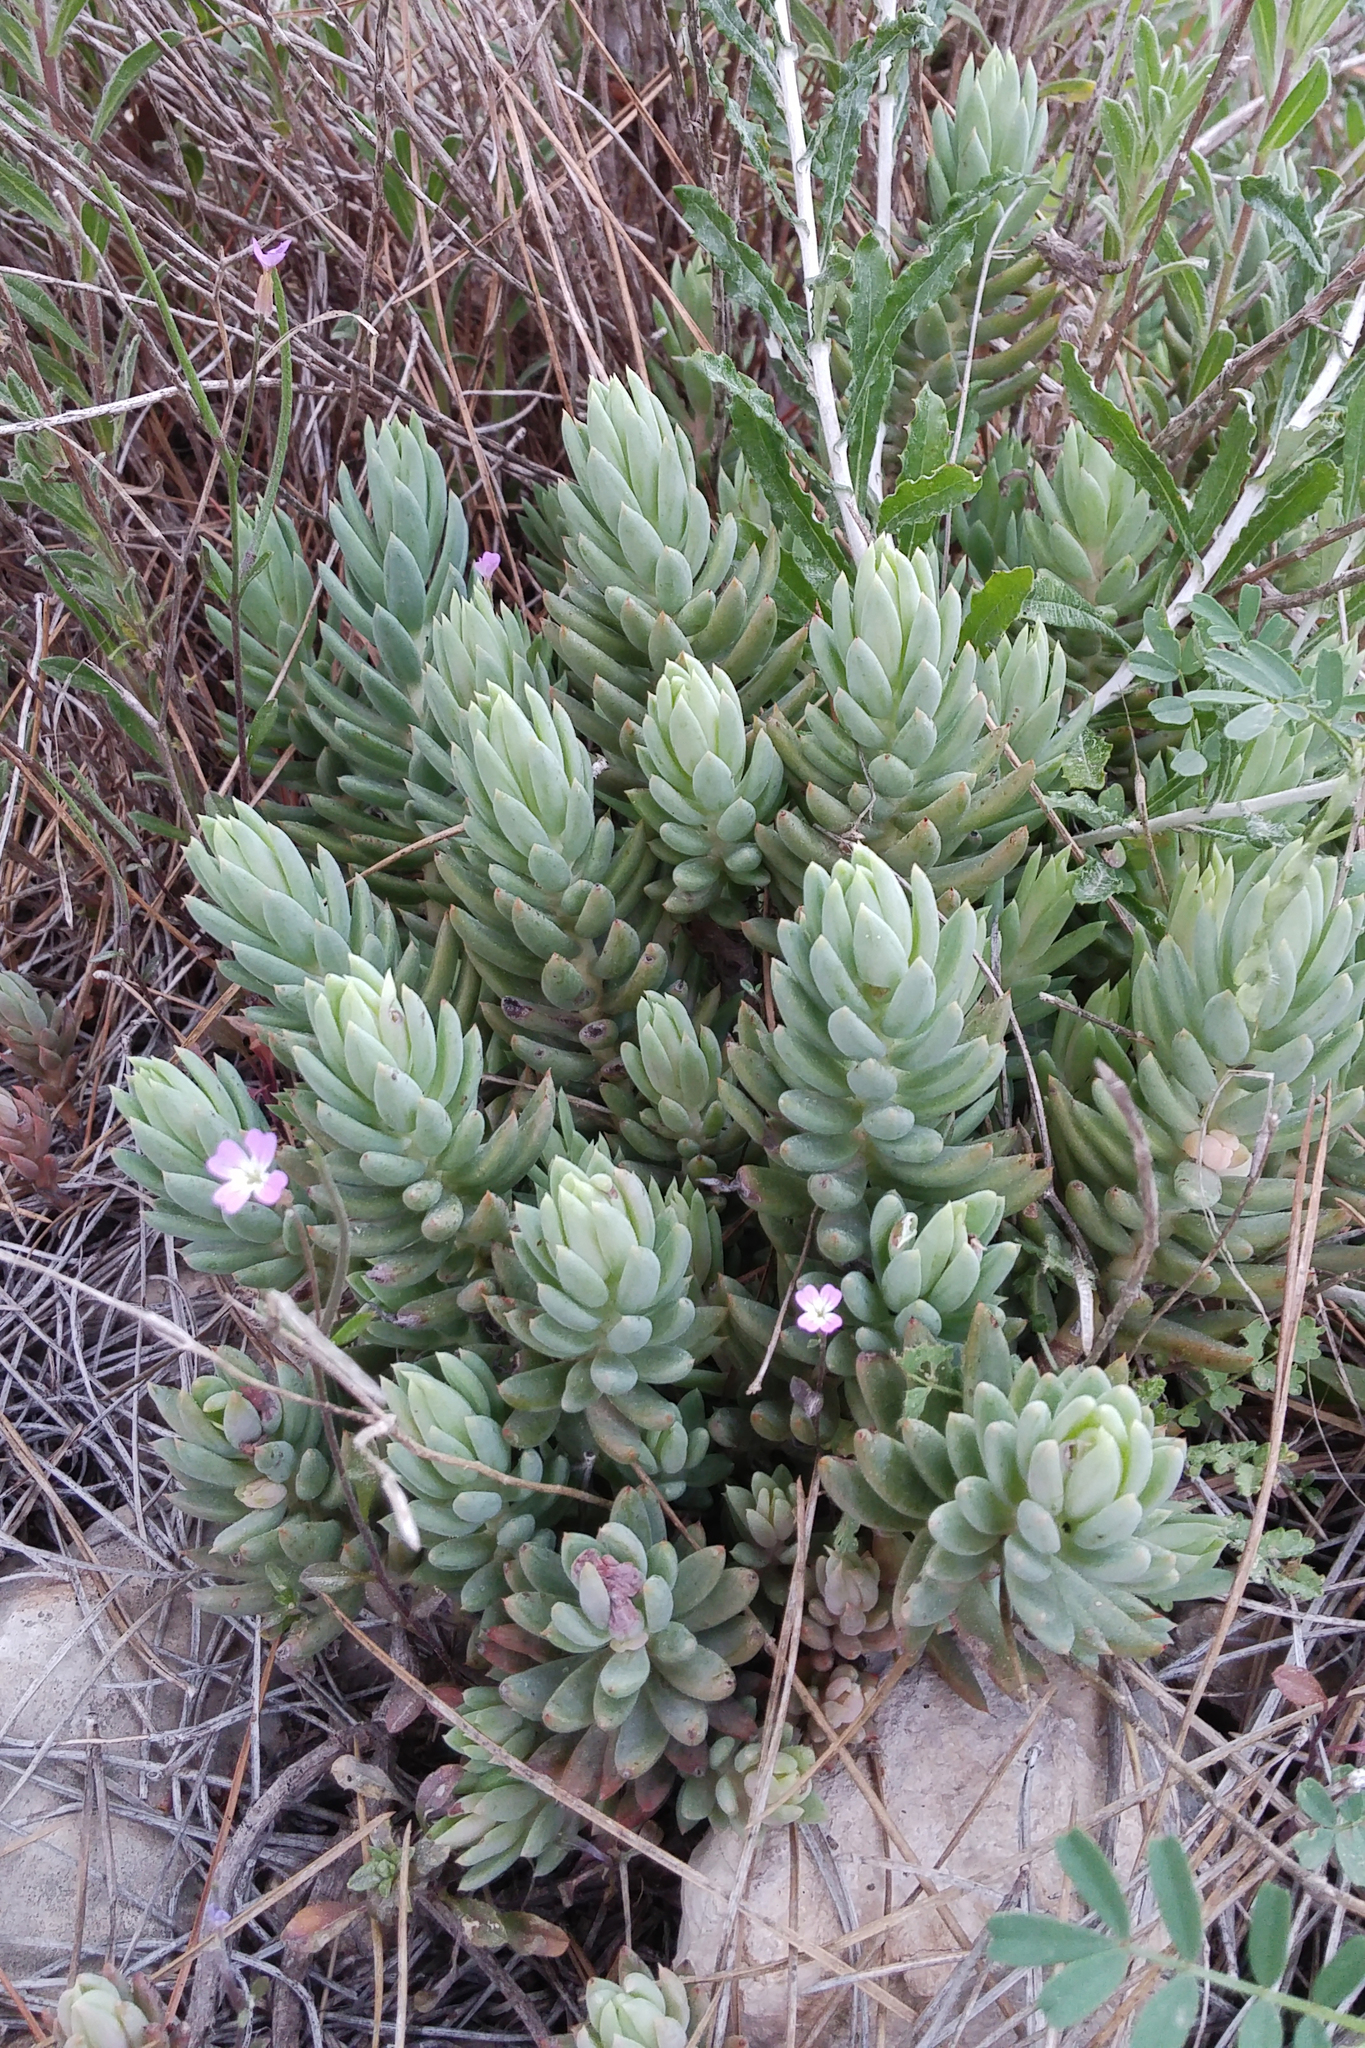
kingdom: Plantae
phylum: Tracheophyta
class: Magnoliopsida
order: Saxifragales
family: Crassulaceae
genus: Petrosedum
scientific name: Petrosedum sediforme
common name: Pale stonecrop
